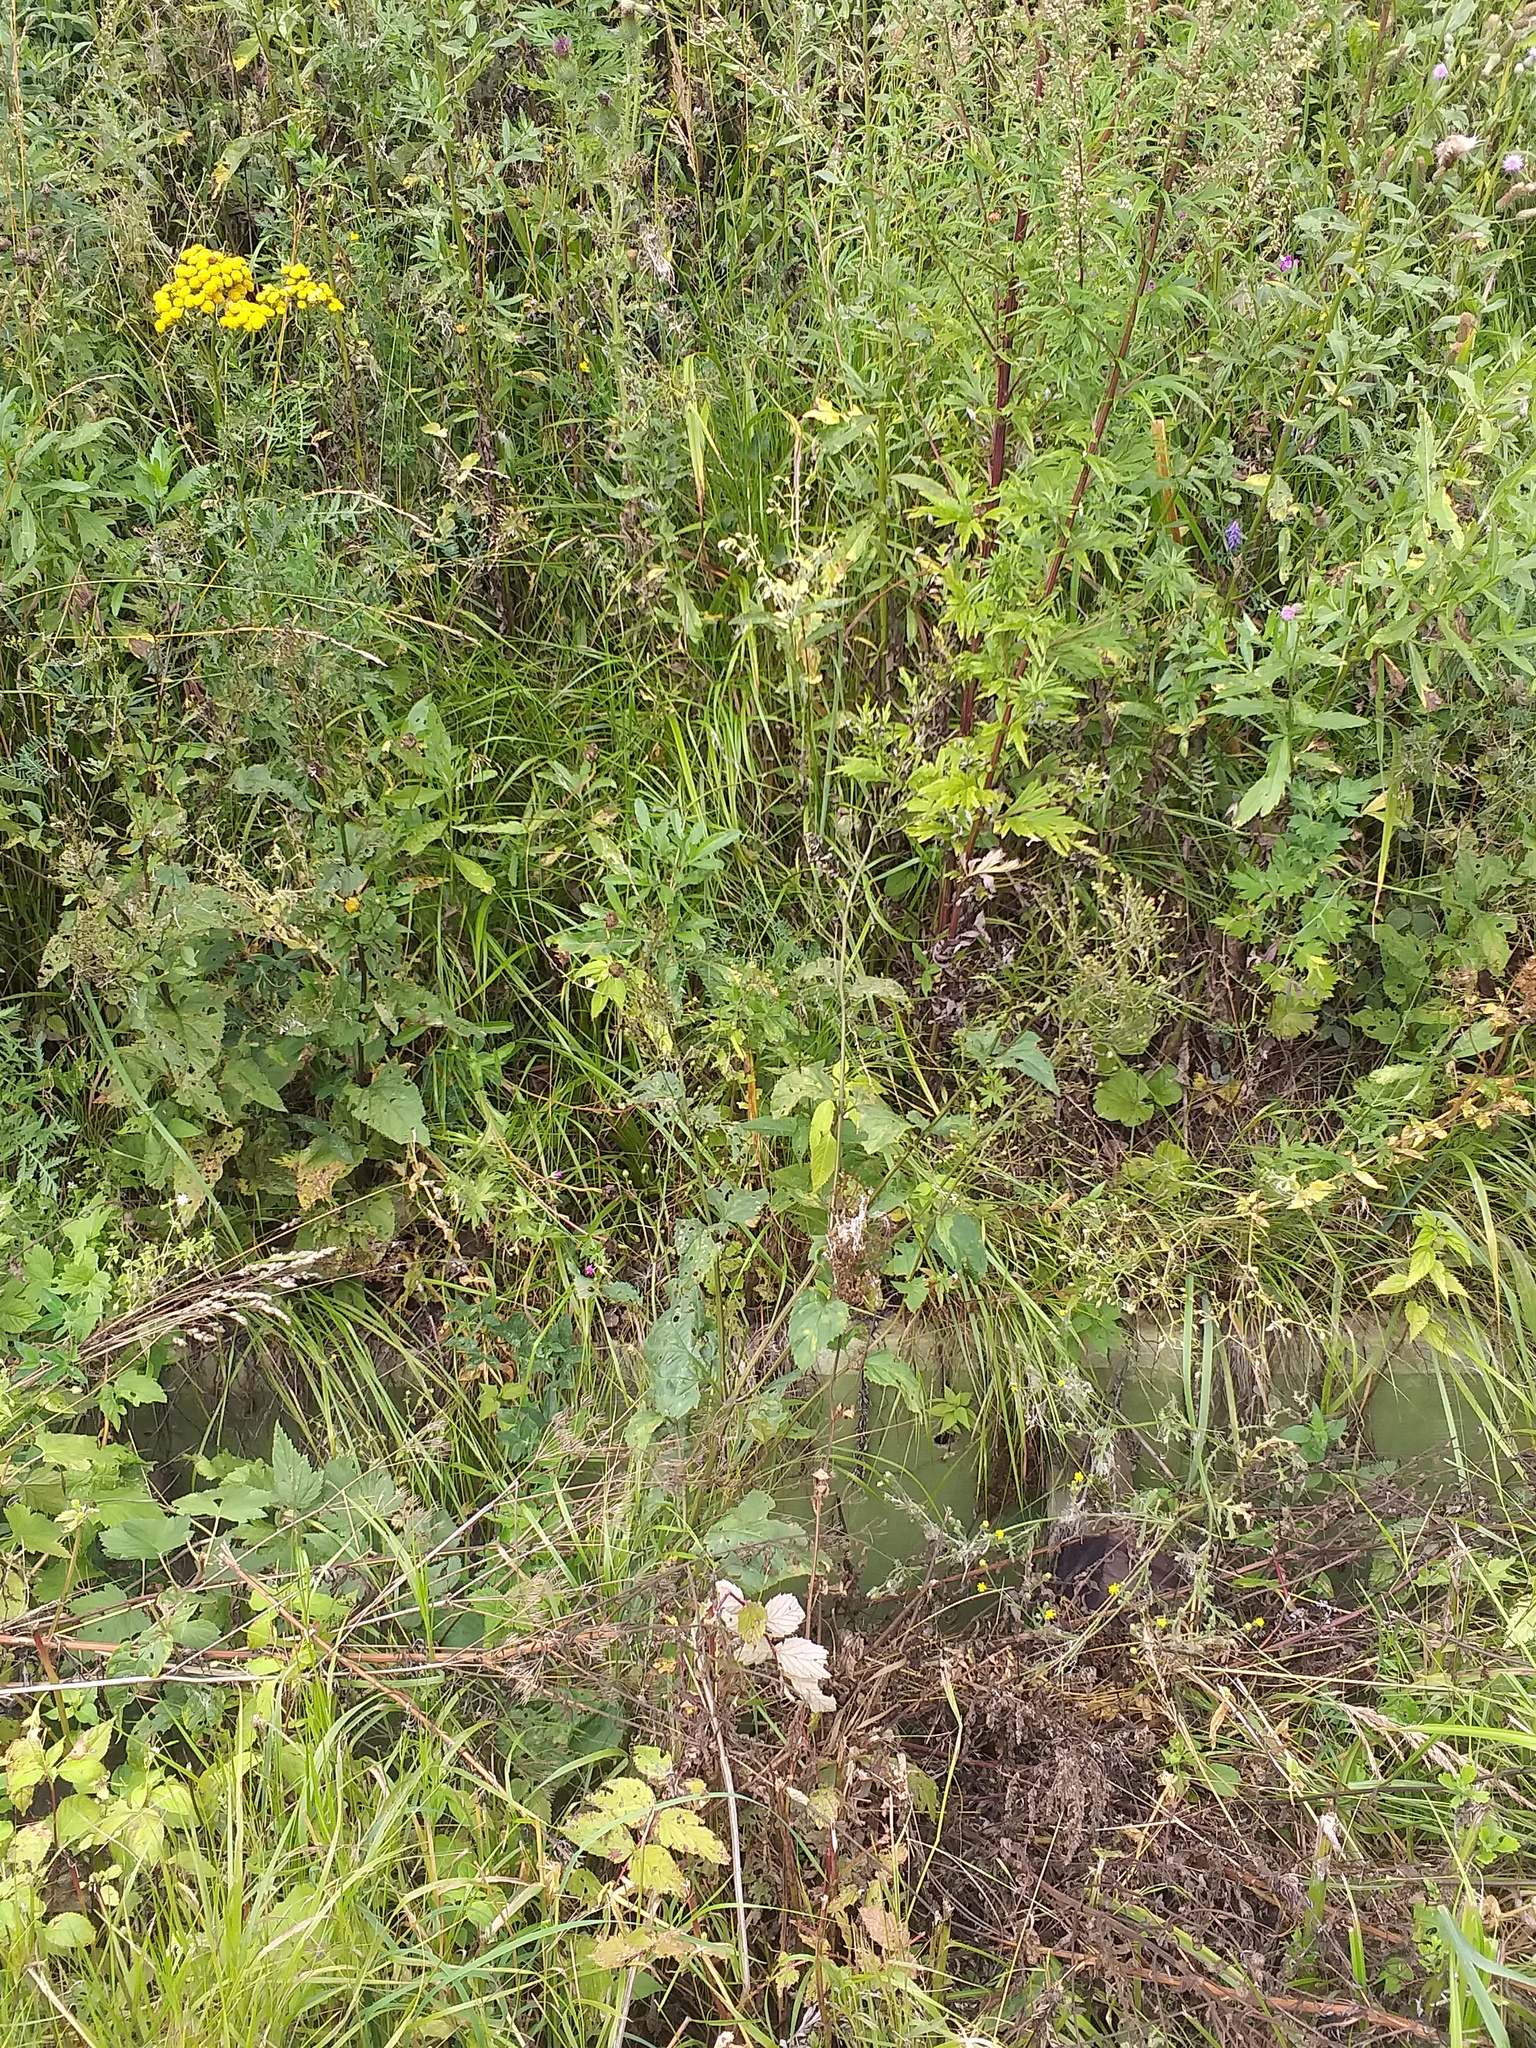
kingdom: Plantae
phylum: Tracheophyta
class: Magnoliopsida
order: Lamiales
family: Scrophulariaceae
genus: Scrophularia
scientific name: Scrophularia nodosa
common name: Common figwort
